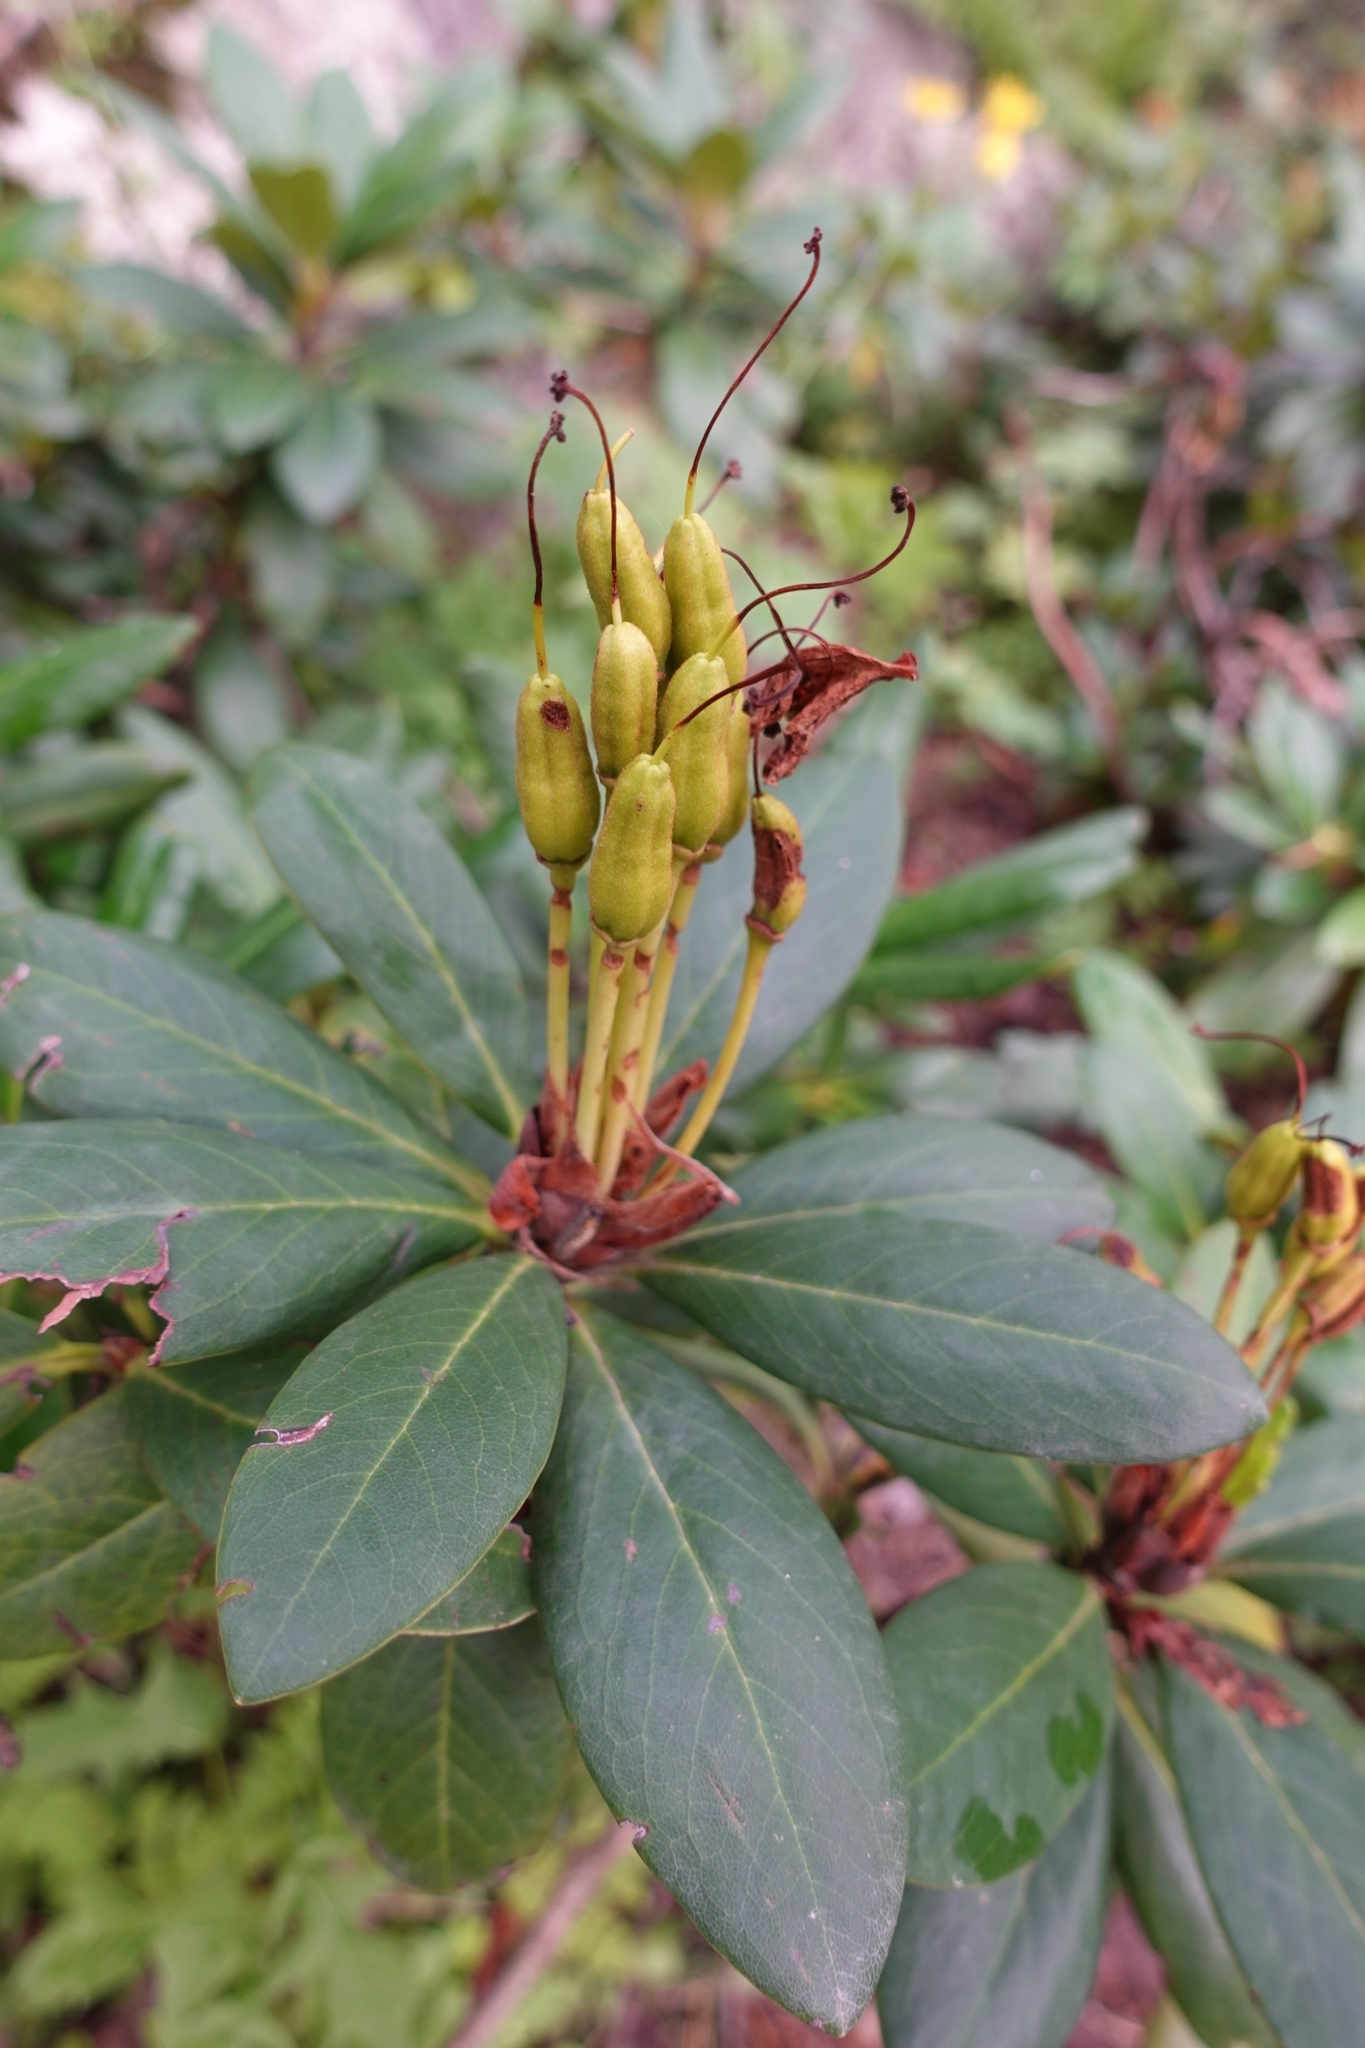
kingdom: Plantae
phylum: Tracheophyta
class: Magnoliopsida
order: Ericales
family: Ericaceae
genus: Rhododendron
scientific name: Rhododendron caucasicum
